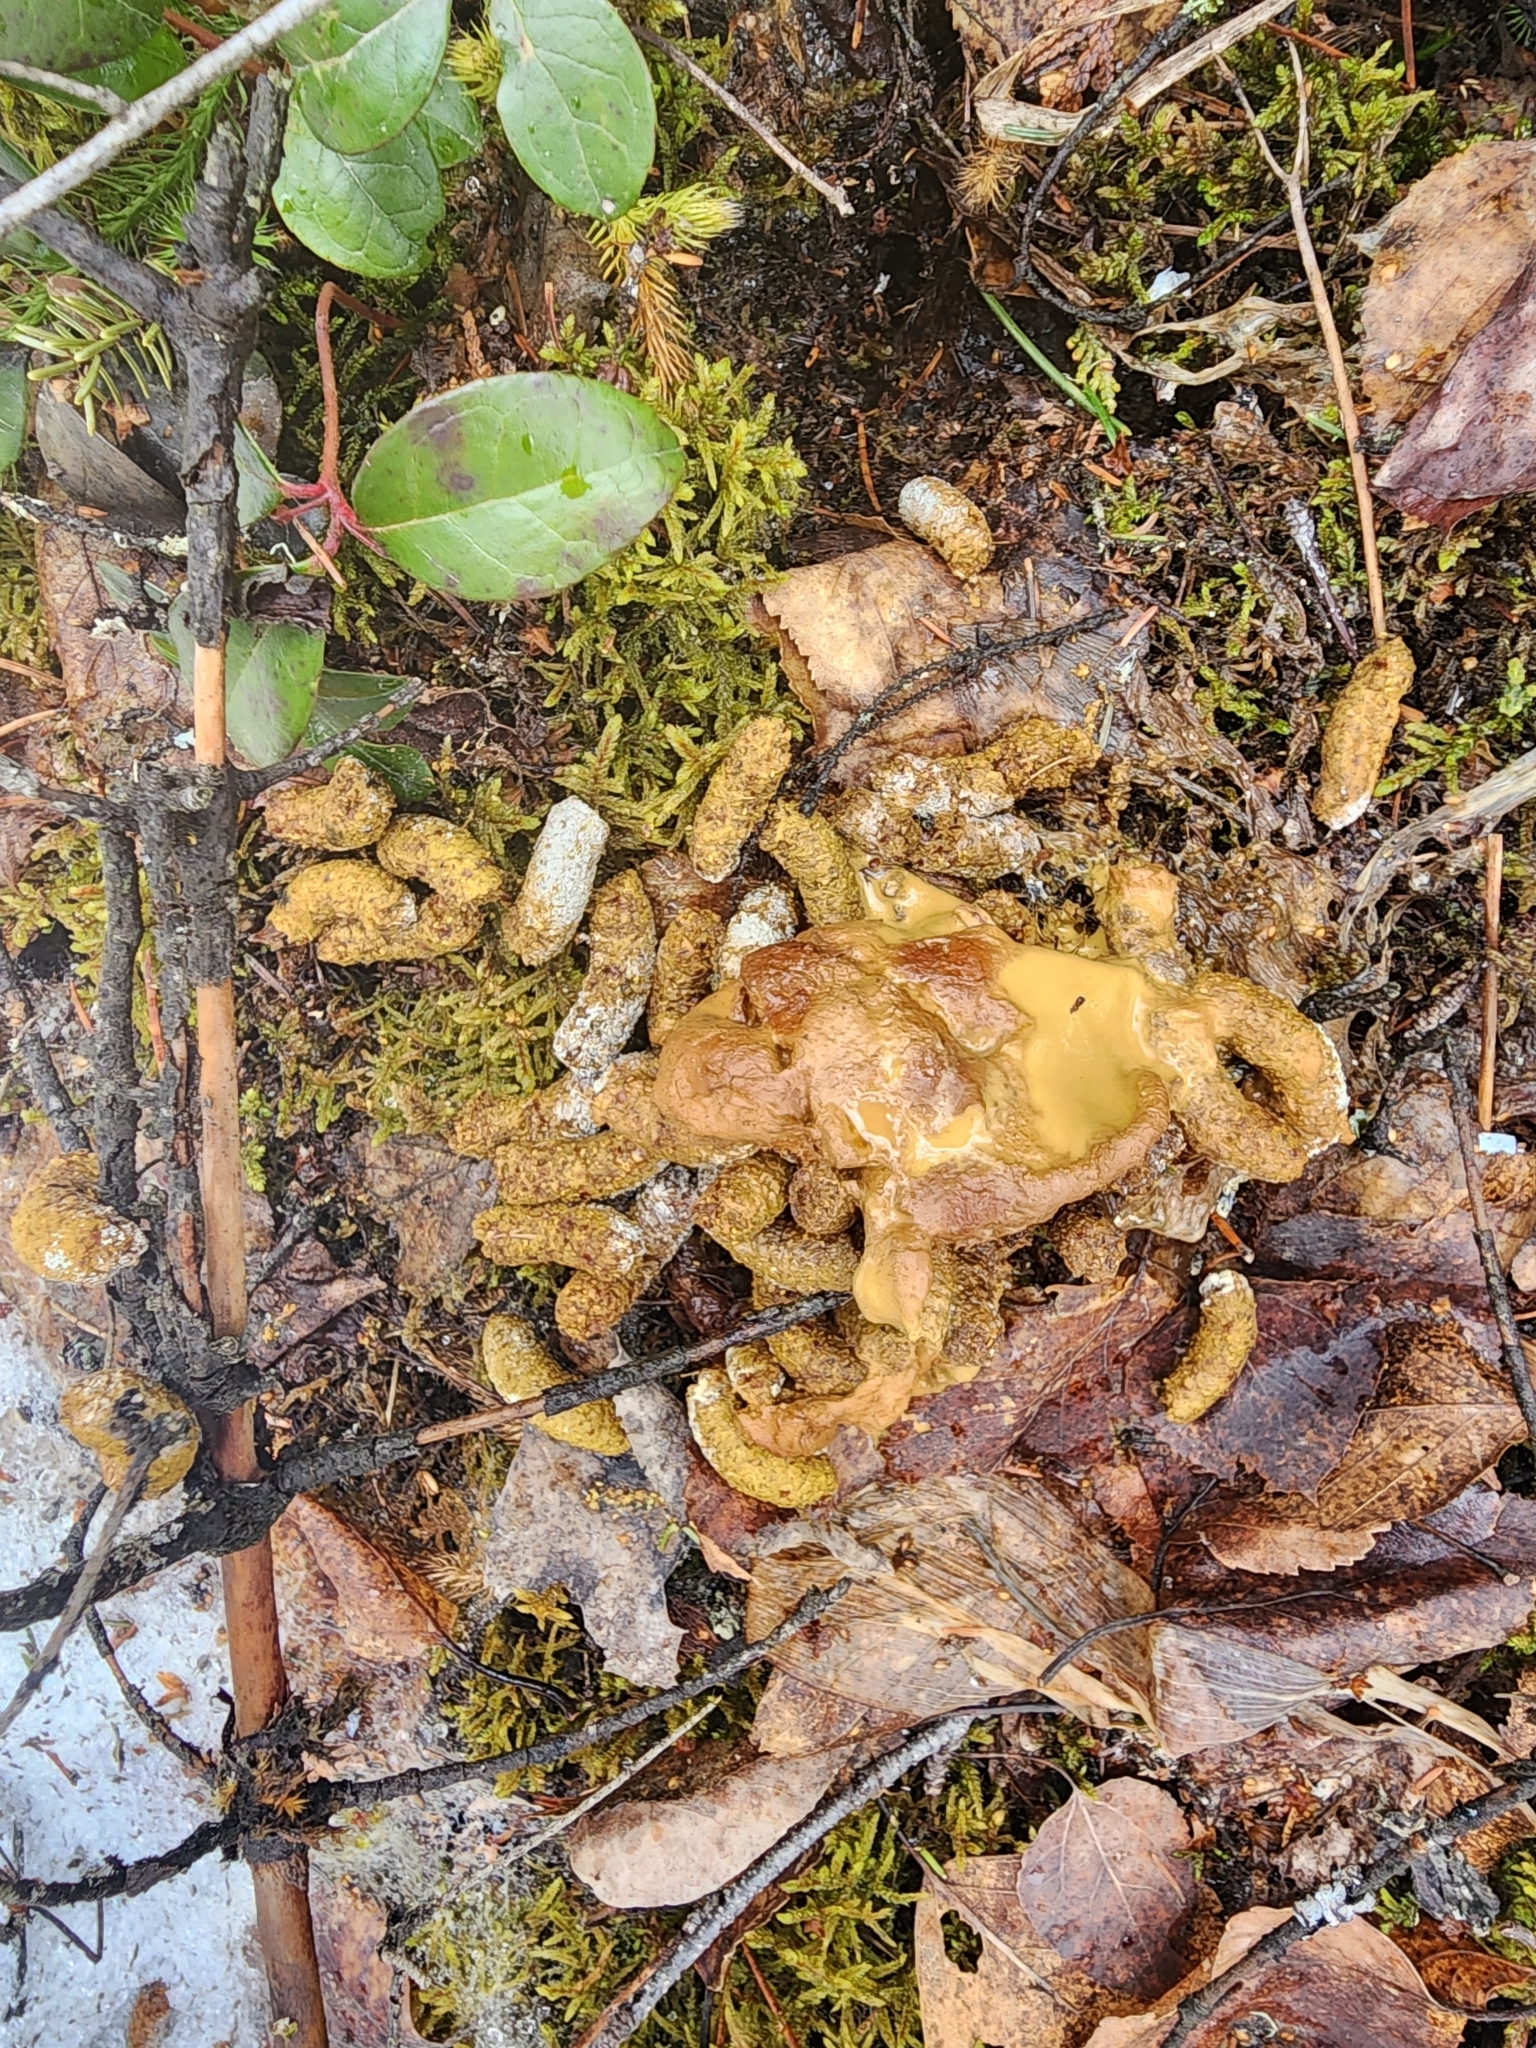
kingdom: Animalia
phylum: Chordata
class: Aves
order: Galliformes
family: Phasianidae
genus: Bonasa
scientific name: Bonasa umbellus
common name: Ruffed grouse
